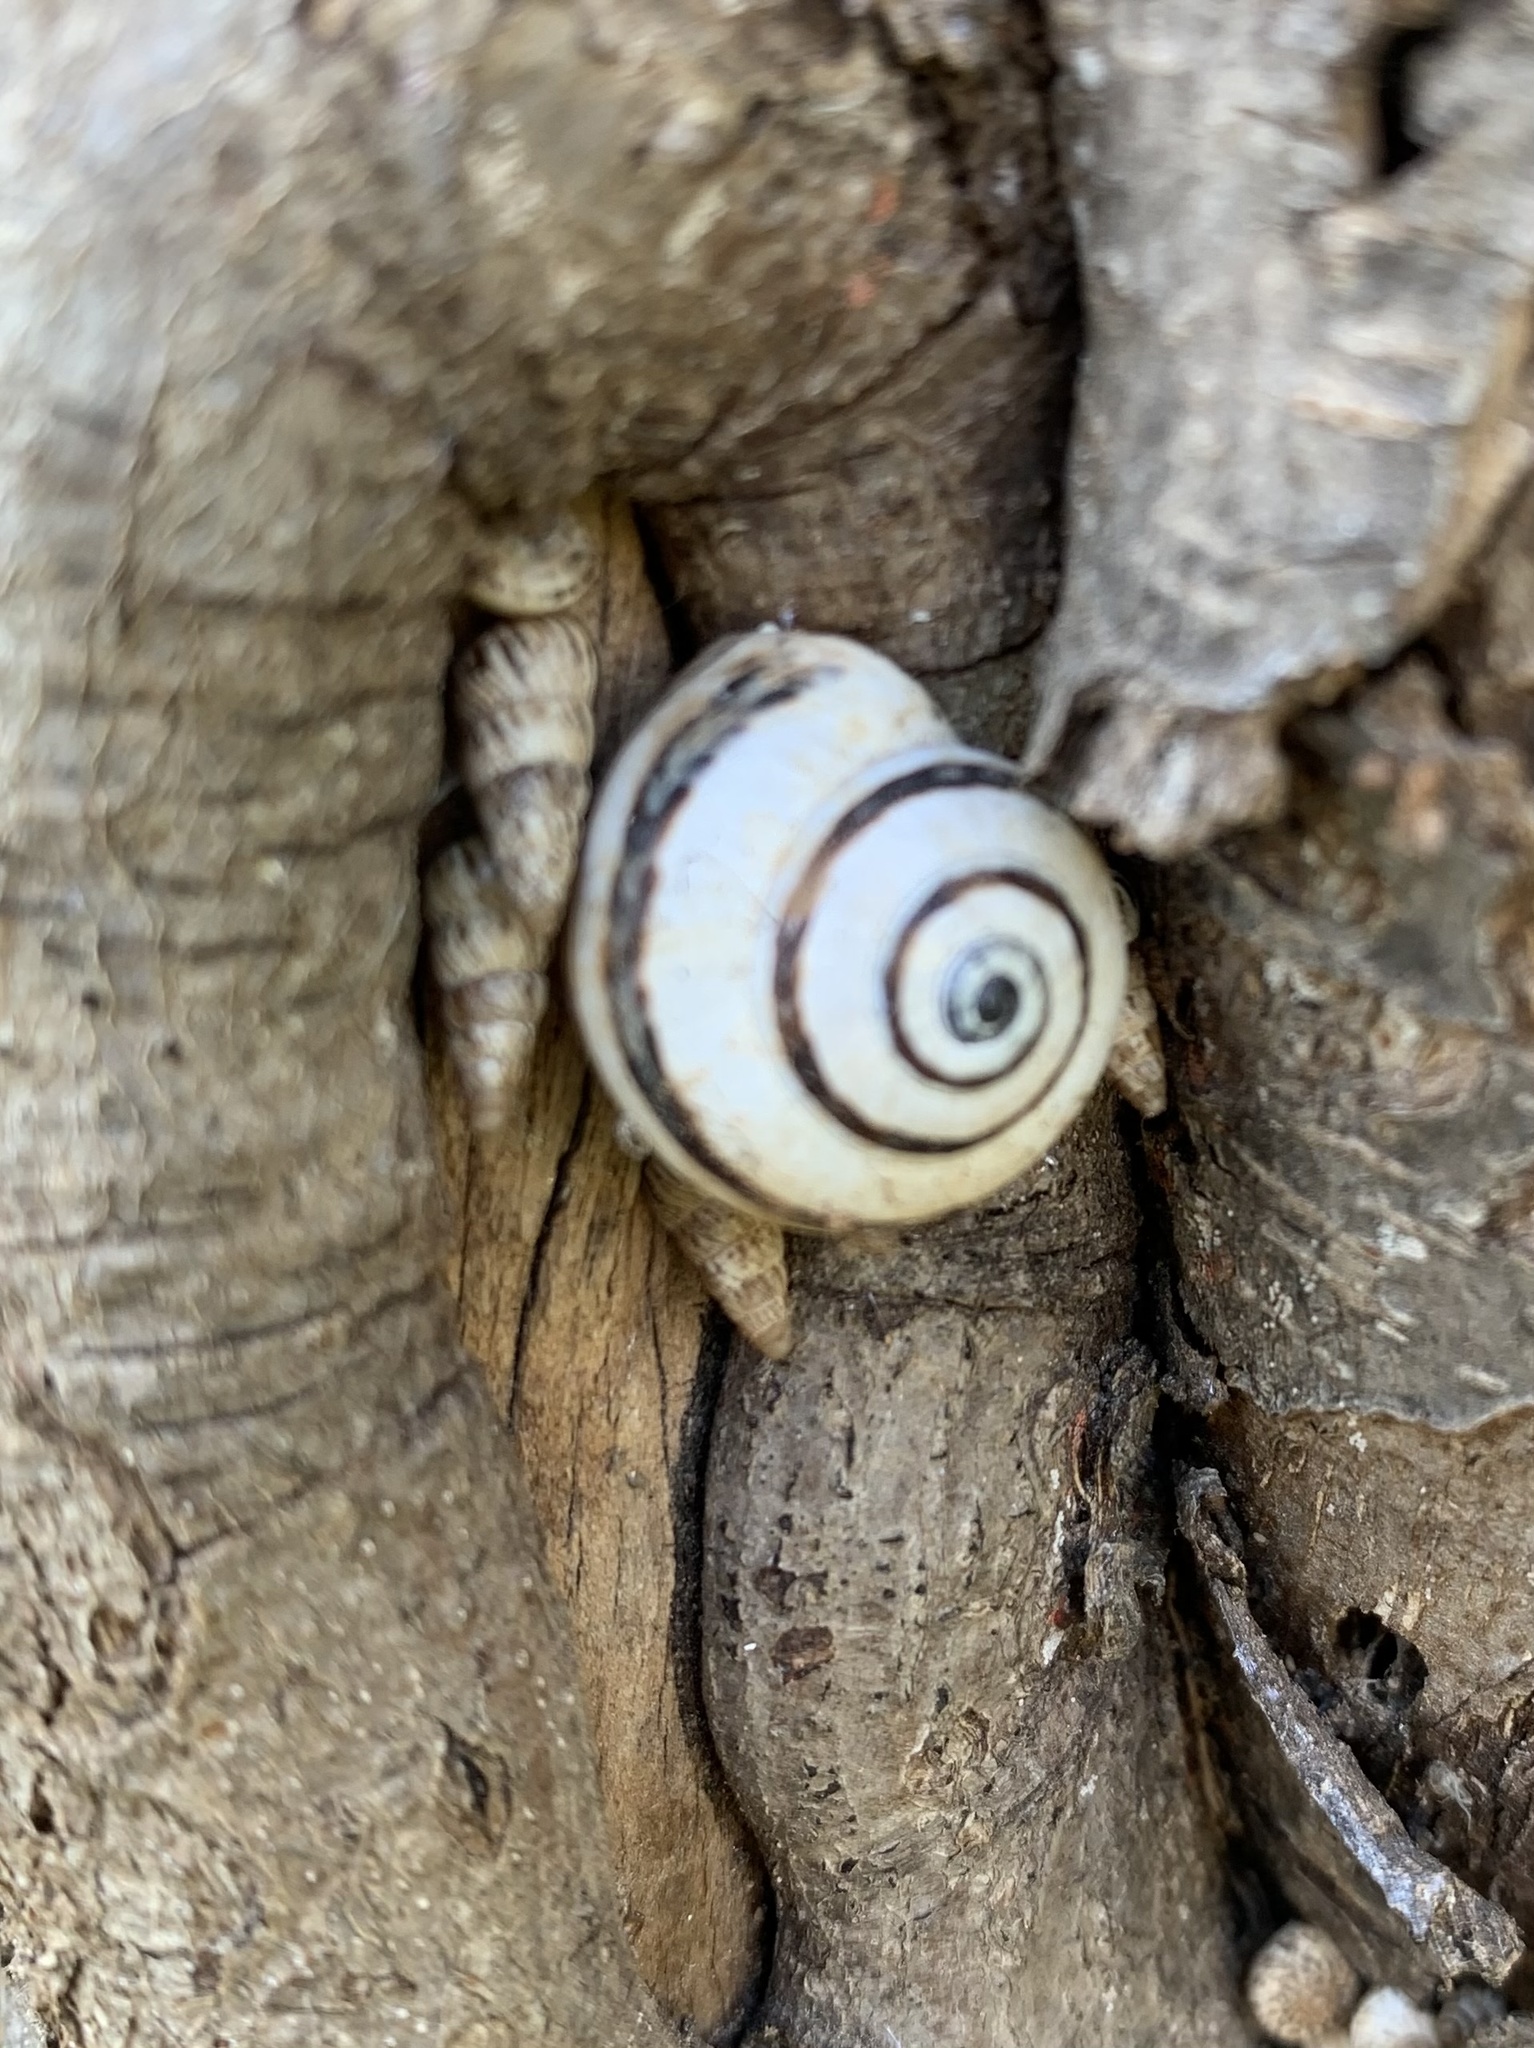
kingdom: Animalia
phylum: Mollusca
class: Gastropoda
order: Stylommatophora
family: Geomitridae
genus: Cernuella
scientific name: Cernuella virgata
